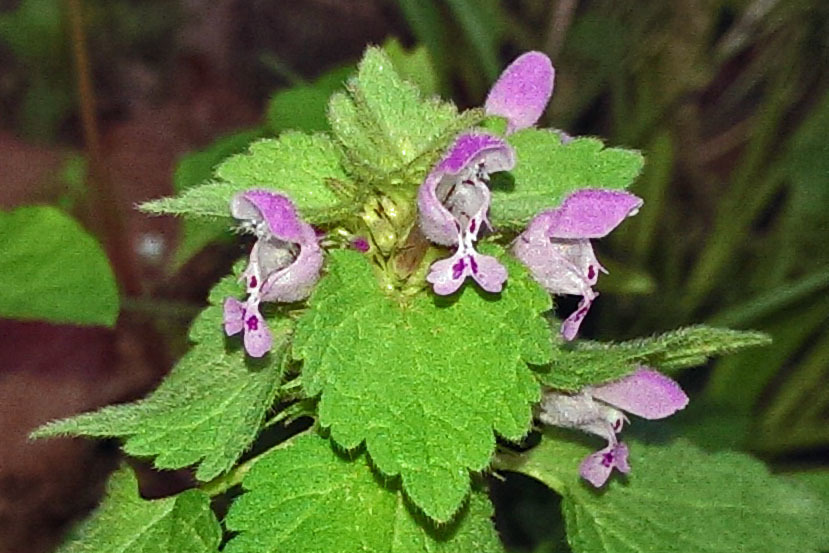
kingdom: Plantae
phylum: Tracheophyta
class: Magnoliopsida
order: Lamiales
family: Lamiaceae
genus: Lamium
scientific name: Lamium purpureum
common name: Red dead-nettle
